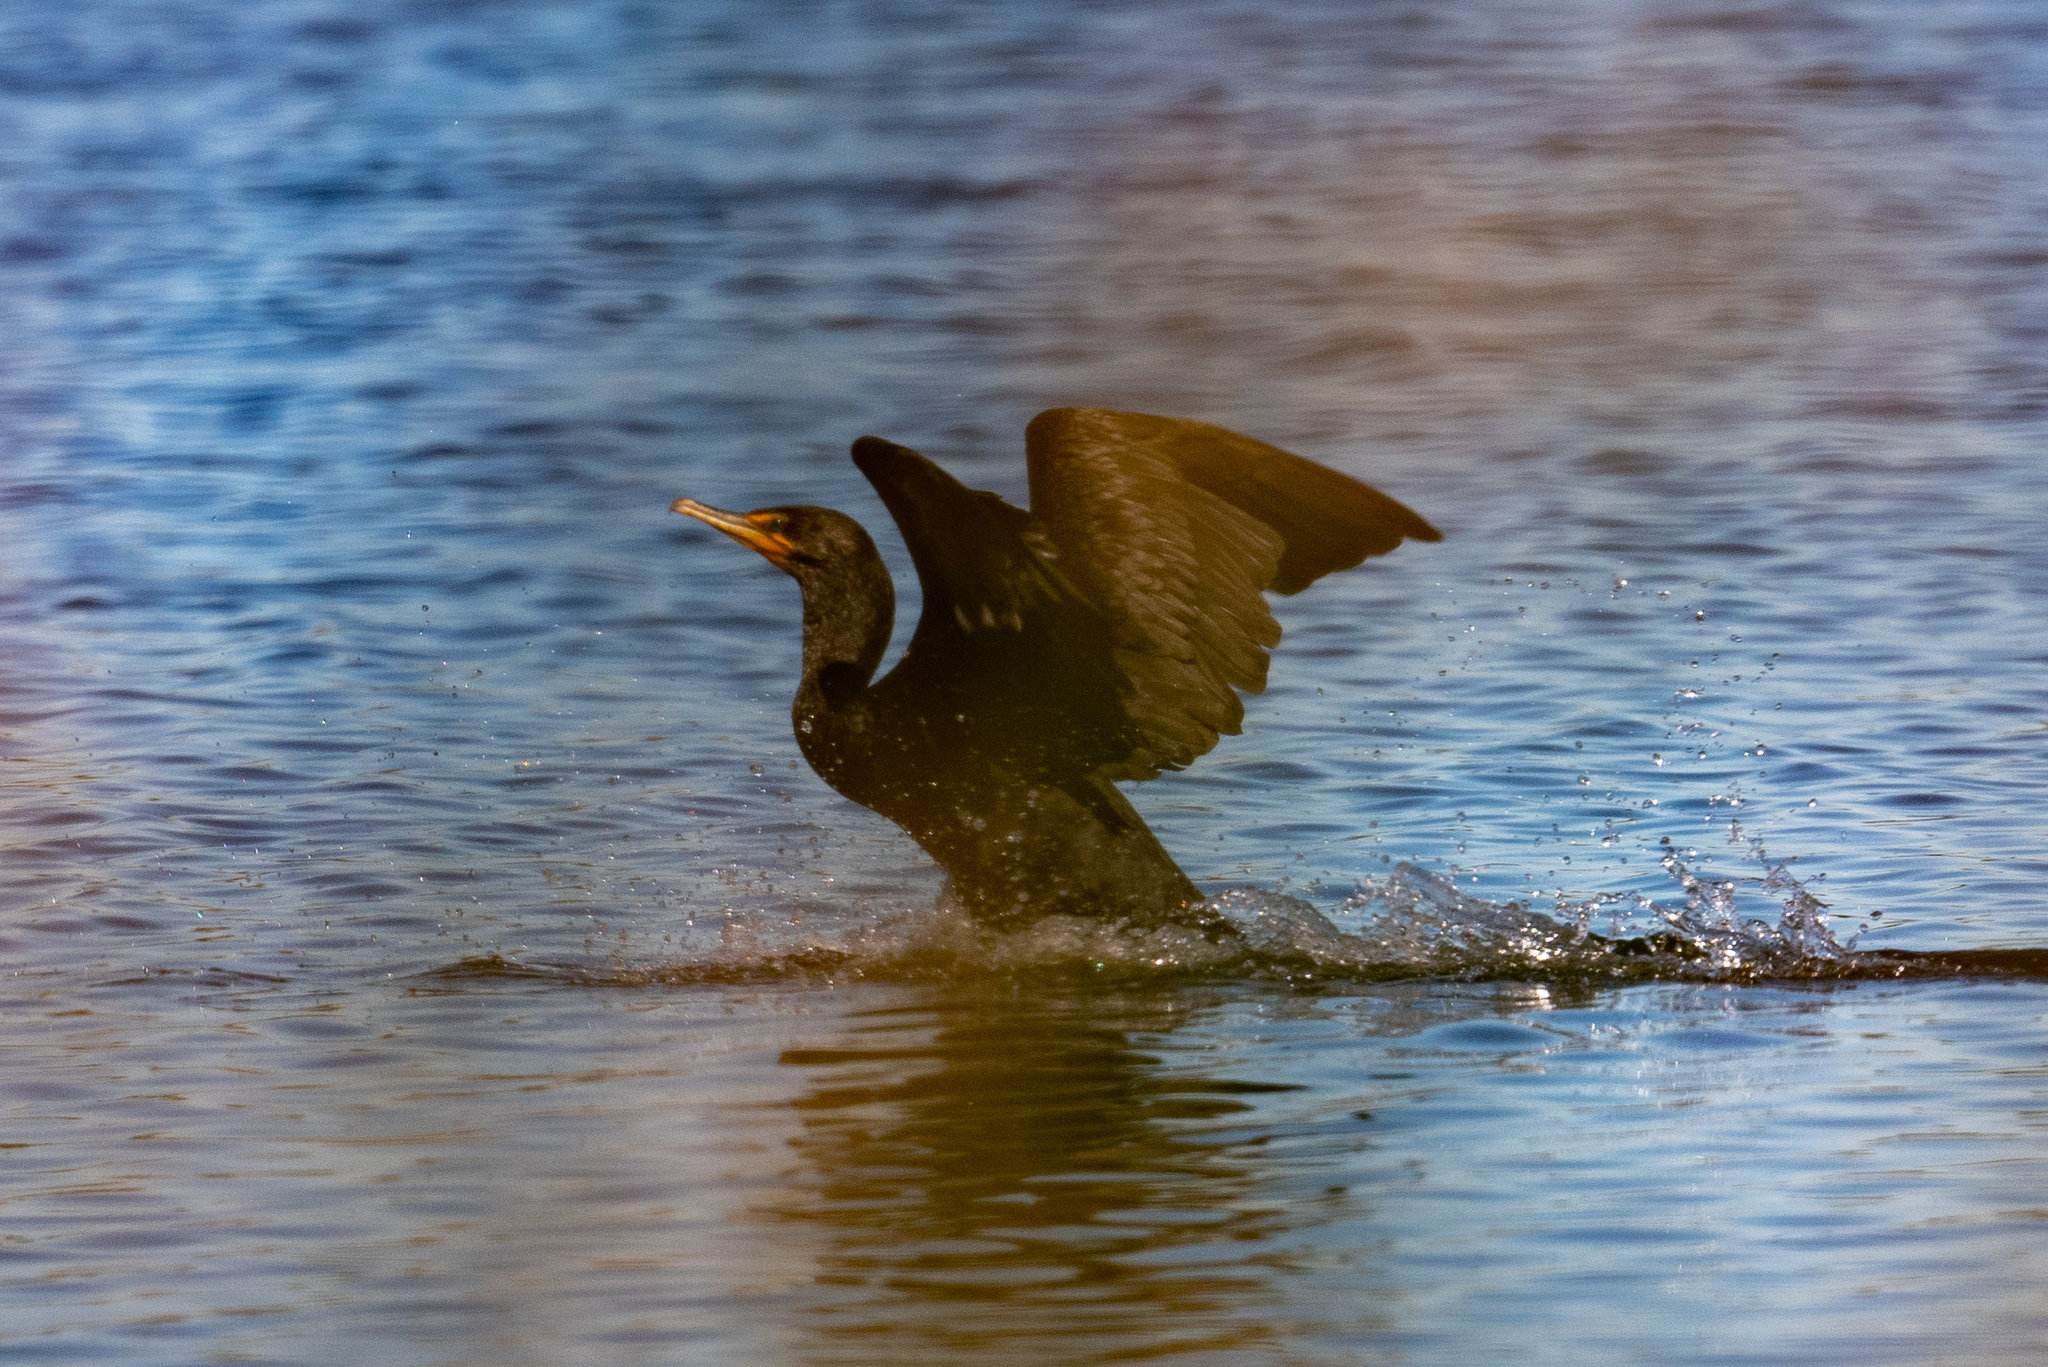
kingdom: Animalia
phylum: Chordata
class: Aves
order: Suliformes
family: Phalacrocoracidae
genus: Phalacrocorax
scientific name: Phalacrocorax auritus
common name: Double-crested cormorant
